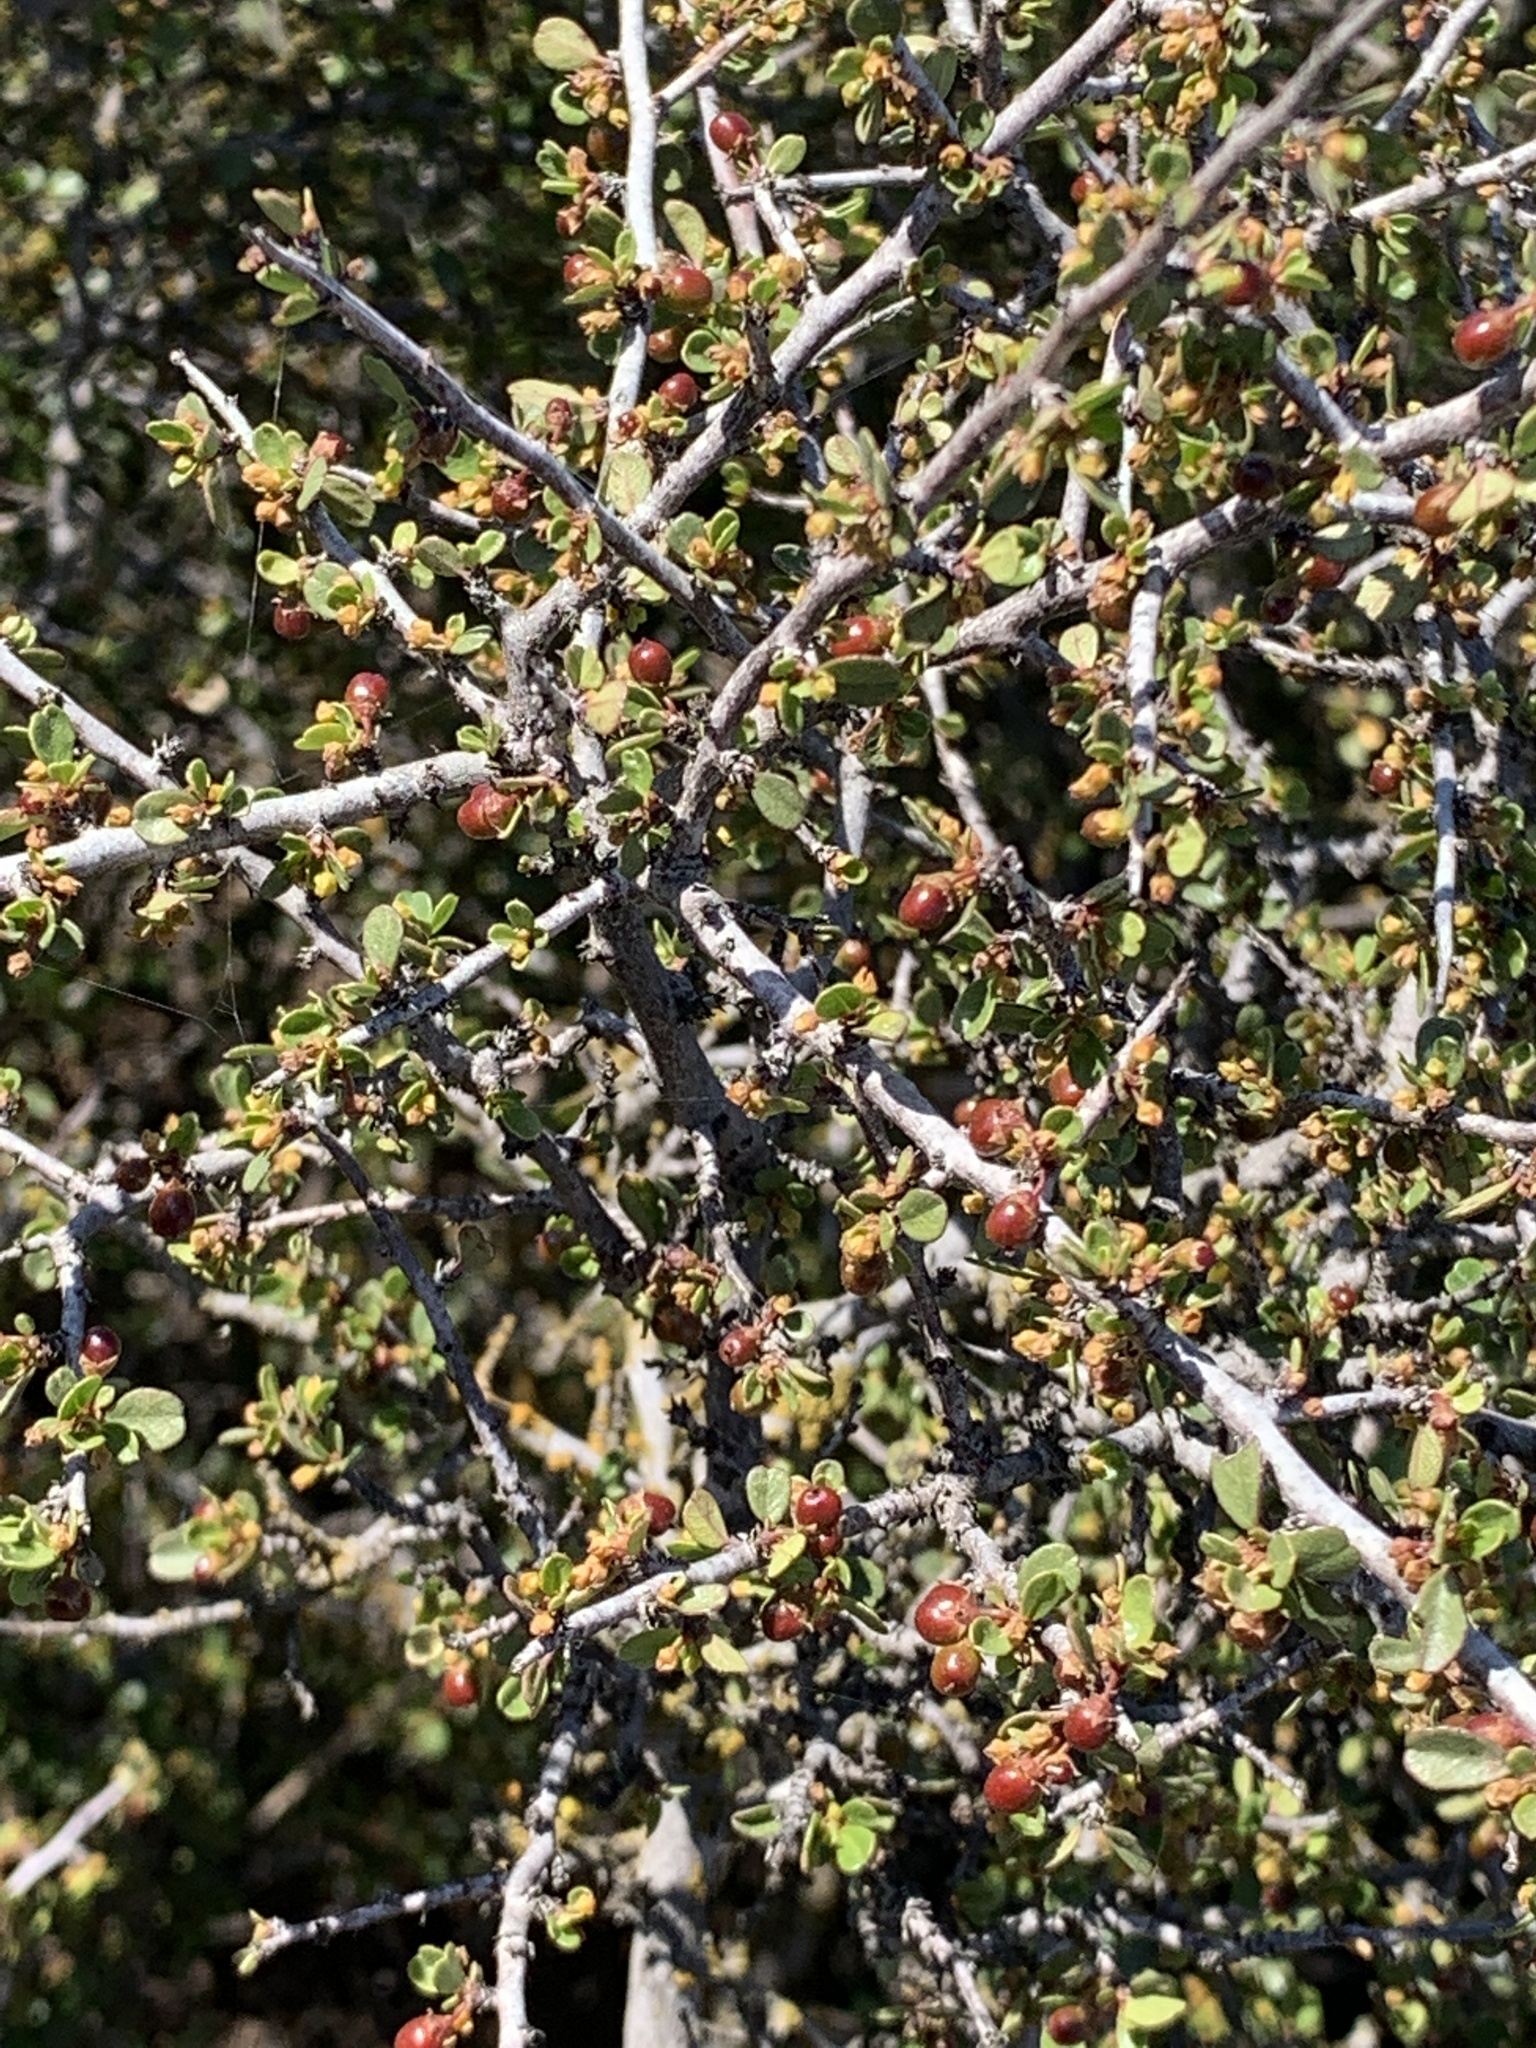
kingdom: Plantae
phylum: Tracheophyta
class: Magnoliopsida
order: Rosales
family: Rhamnaceae
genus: Endotropis
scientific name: Endotropis crocea
